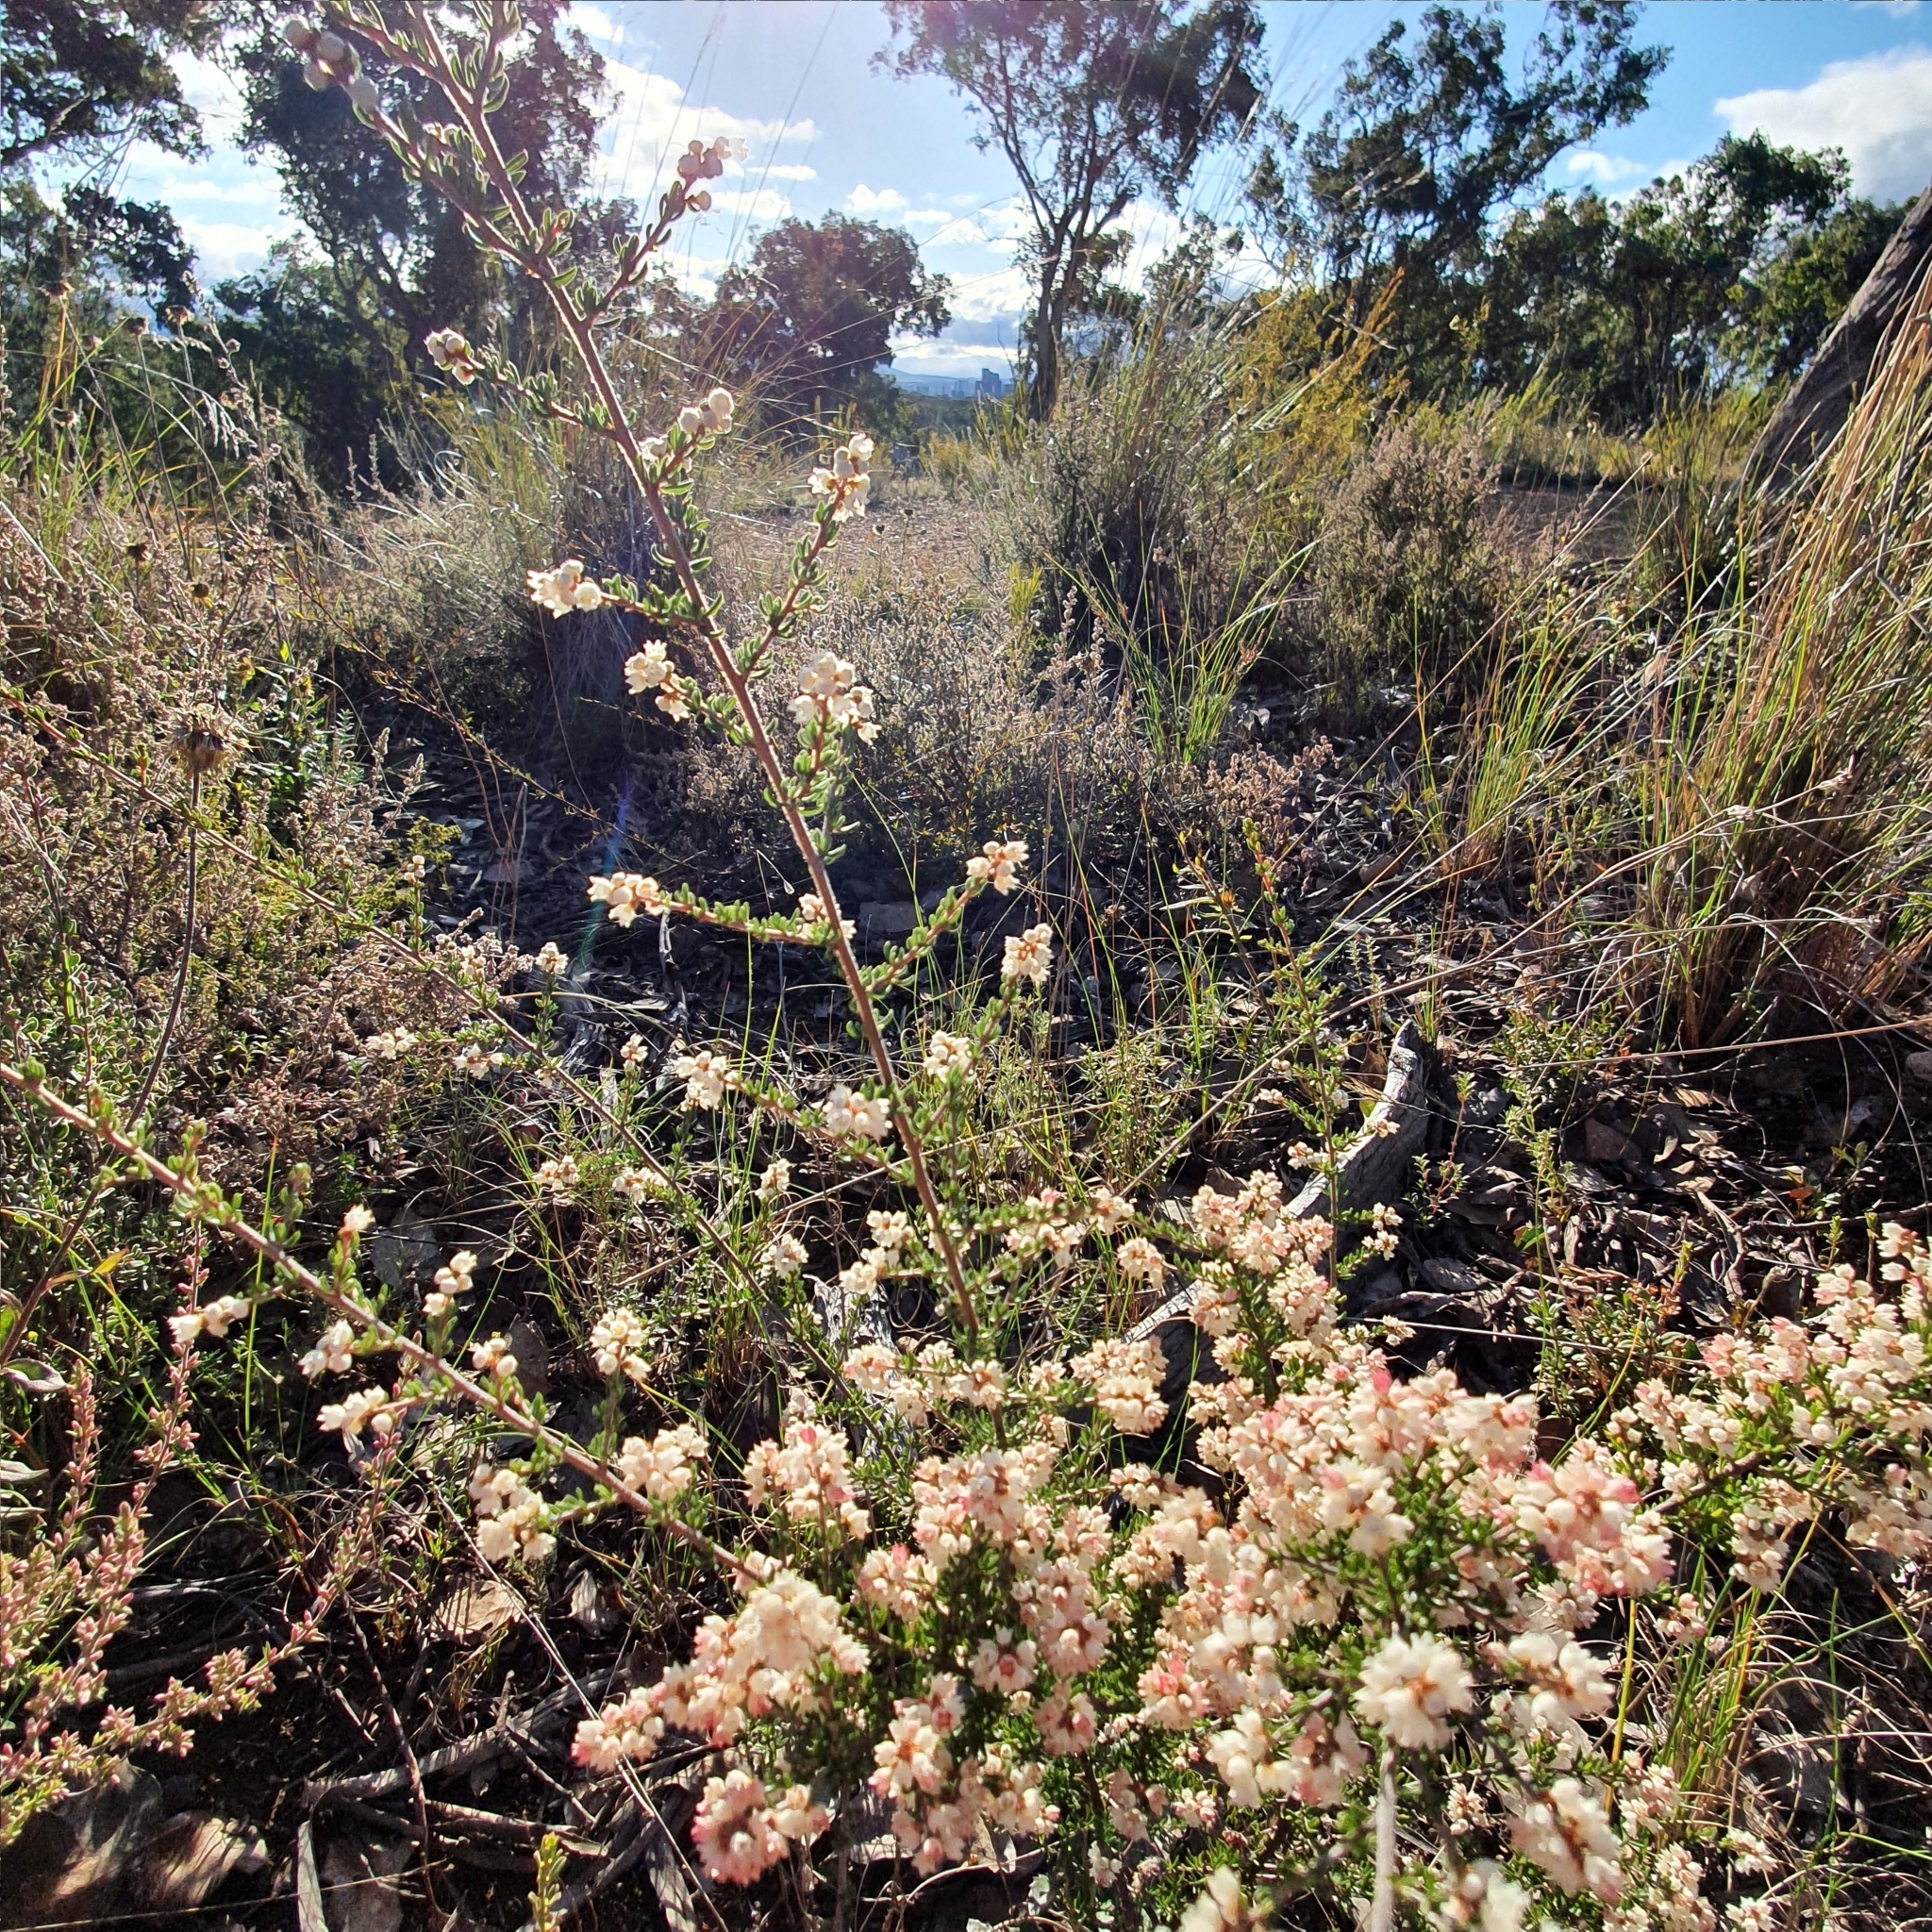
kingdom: Plantae
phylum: Tracheophyta
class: Magnoliopsida
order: Rosales
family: Rhamnaceae
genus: Cryptandra
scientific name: Cryptandra tomentosa
